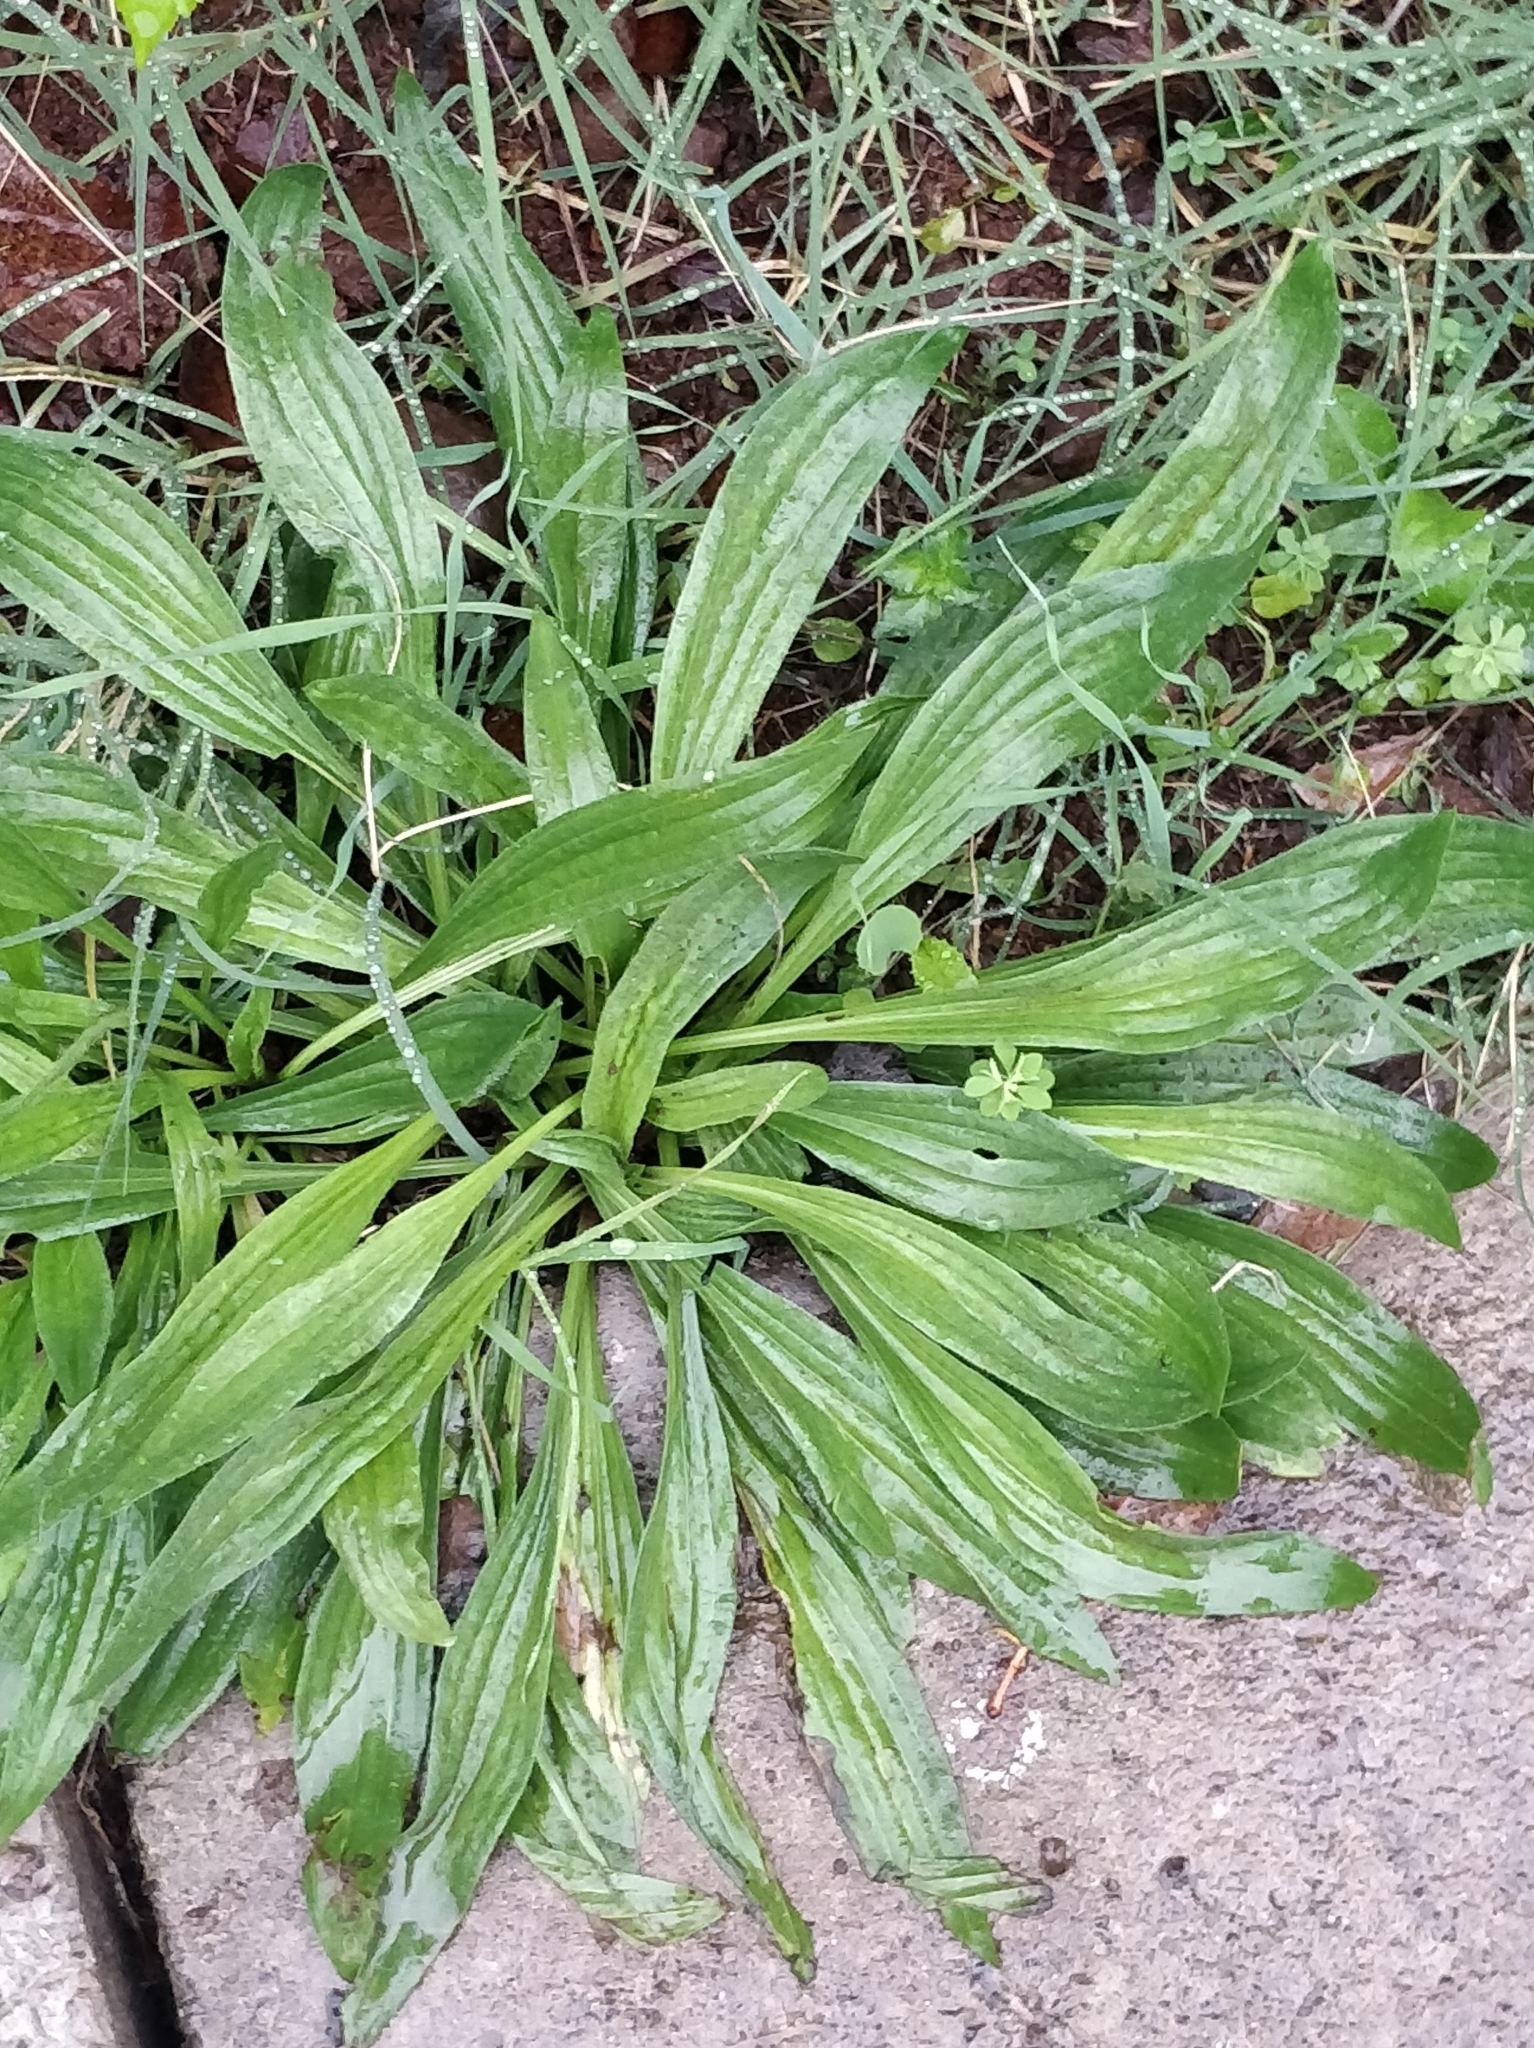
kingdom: Plantae
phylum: Tracheophyta
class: Magnoliopsida
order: Lamiales
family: Plantaginaceae
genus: Plantago
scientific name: Plantago lanceolata
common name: Ribwort plantain
